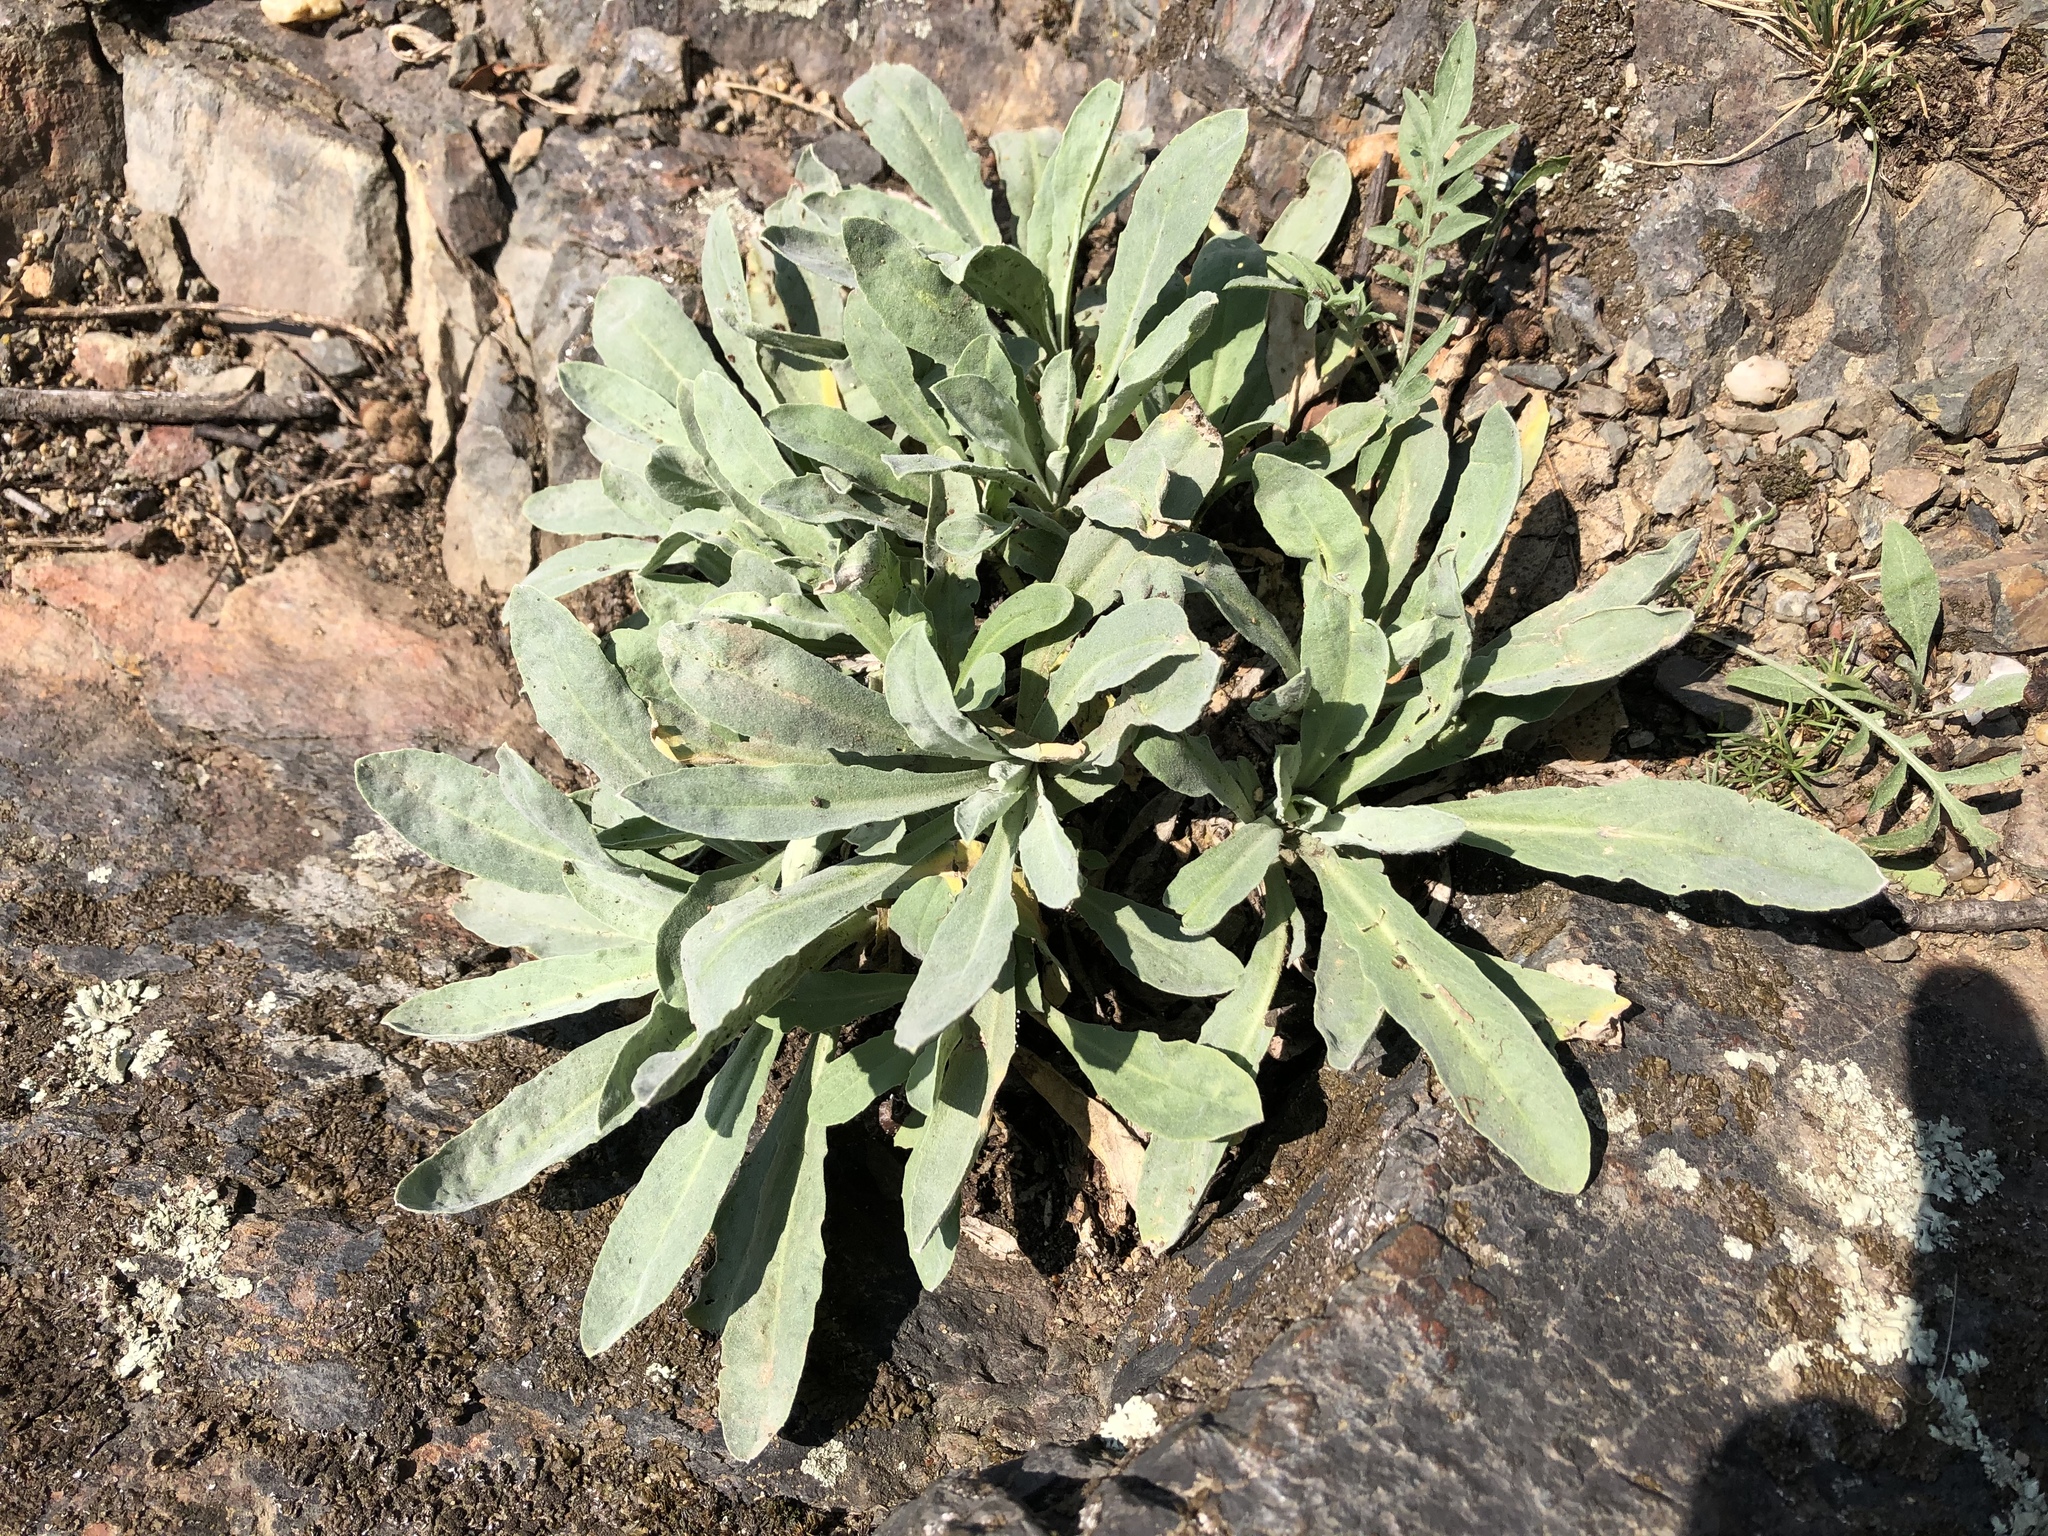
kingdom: Plantae
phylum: Tracheophyta
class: Magnoliopsida
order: Brassicales
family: Brassicaceae
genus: Aurinia
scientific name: Aurinia saxatilis
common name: Golden-tuft alyssum
